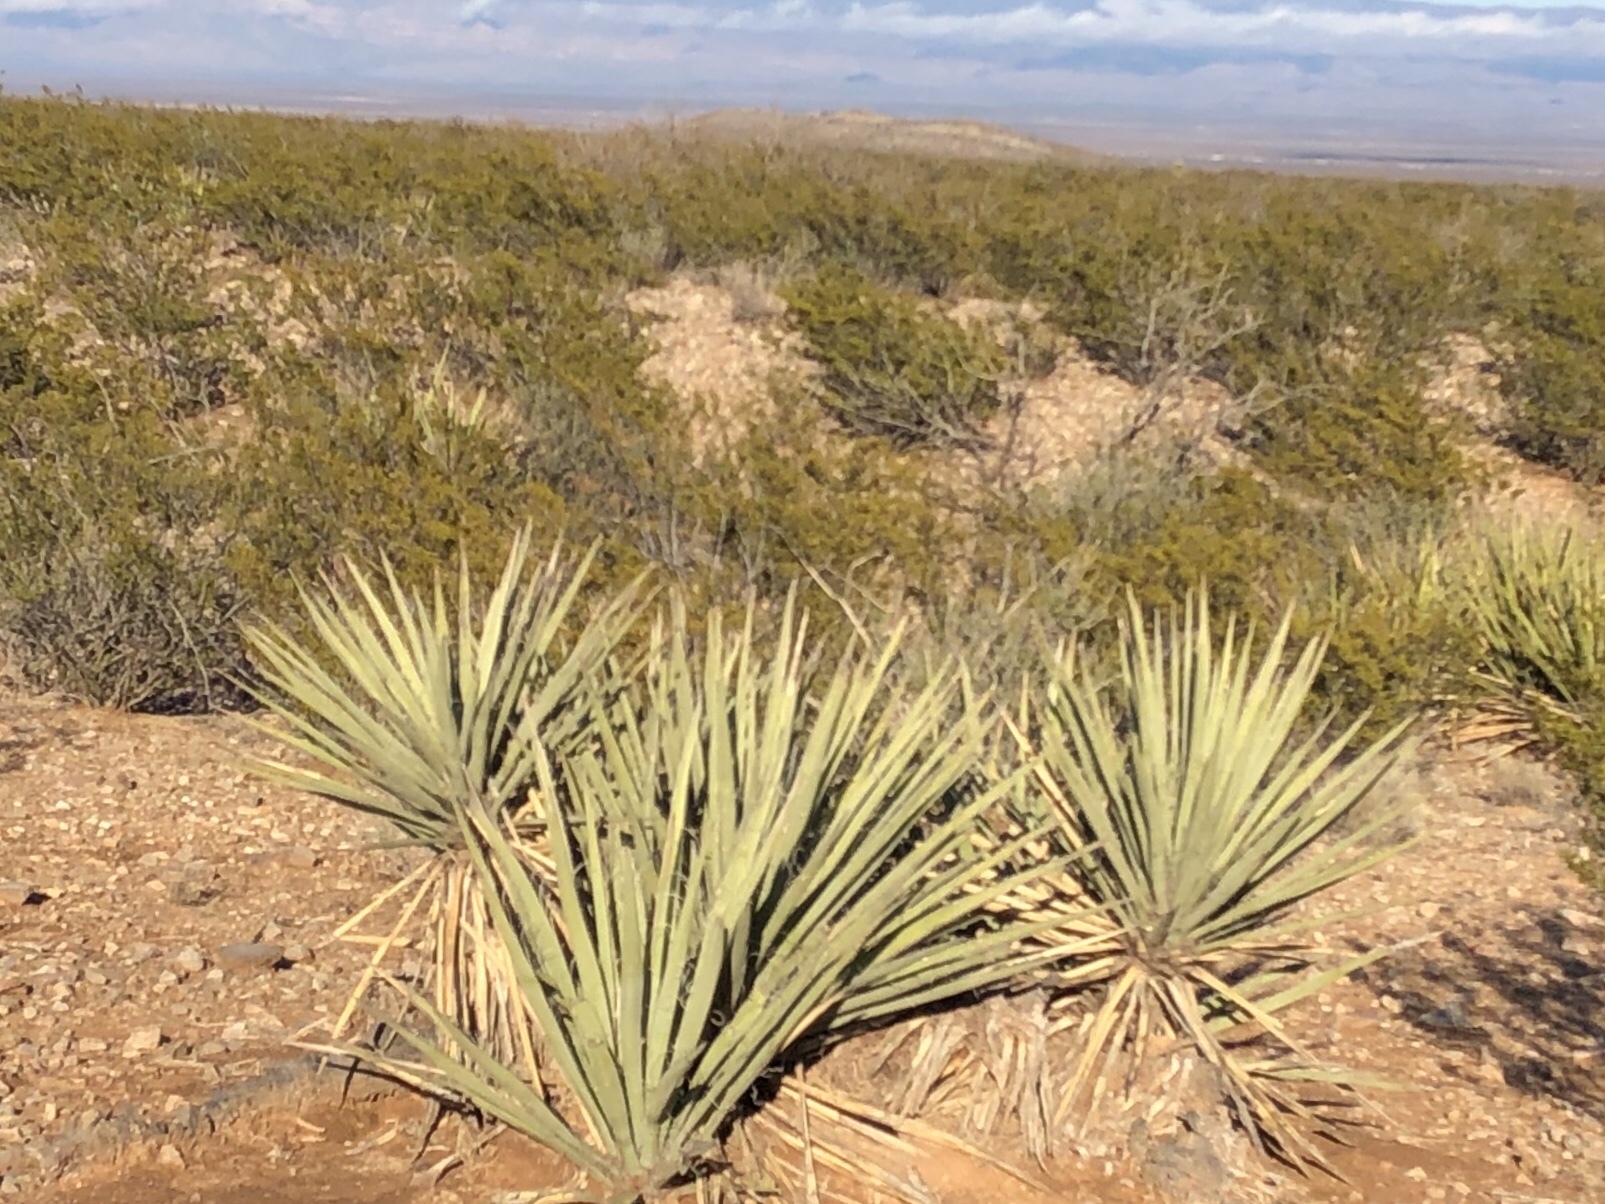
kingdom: Plantae
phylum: Tracheophyta
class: Liliopsida
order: Asparagales
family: Asparagaceae
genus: Yucca
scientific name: Yucca baccata
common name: Banana yucca
